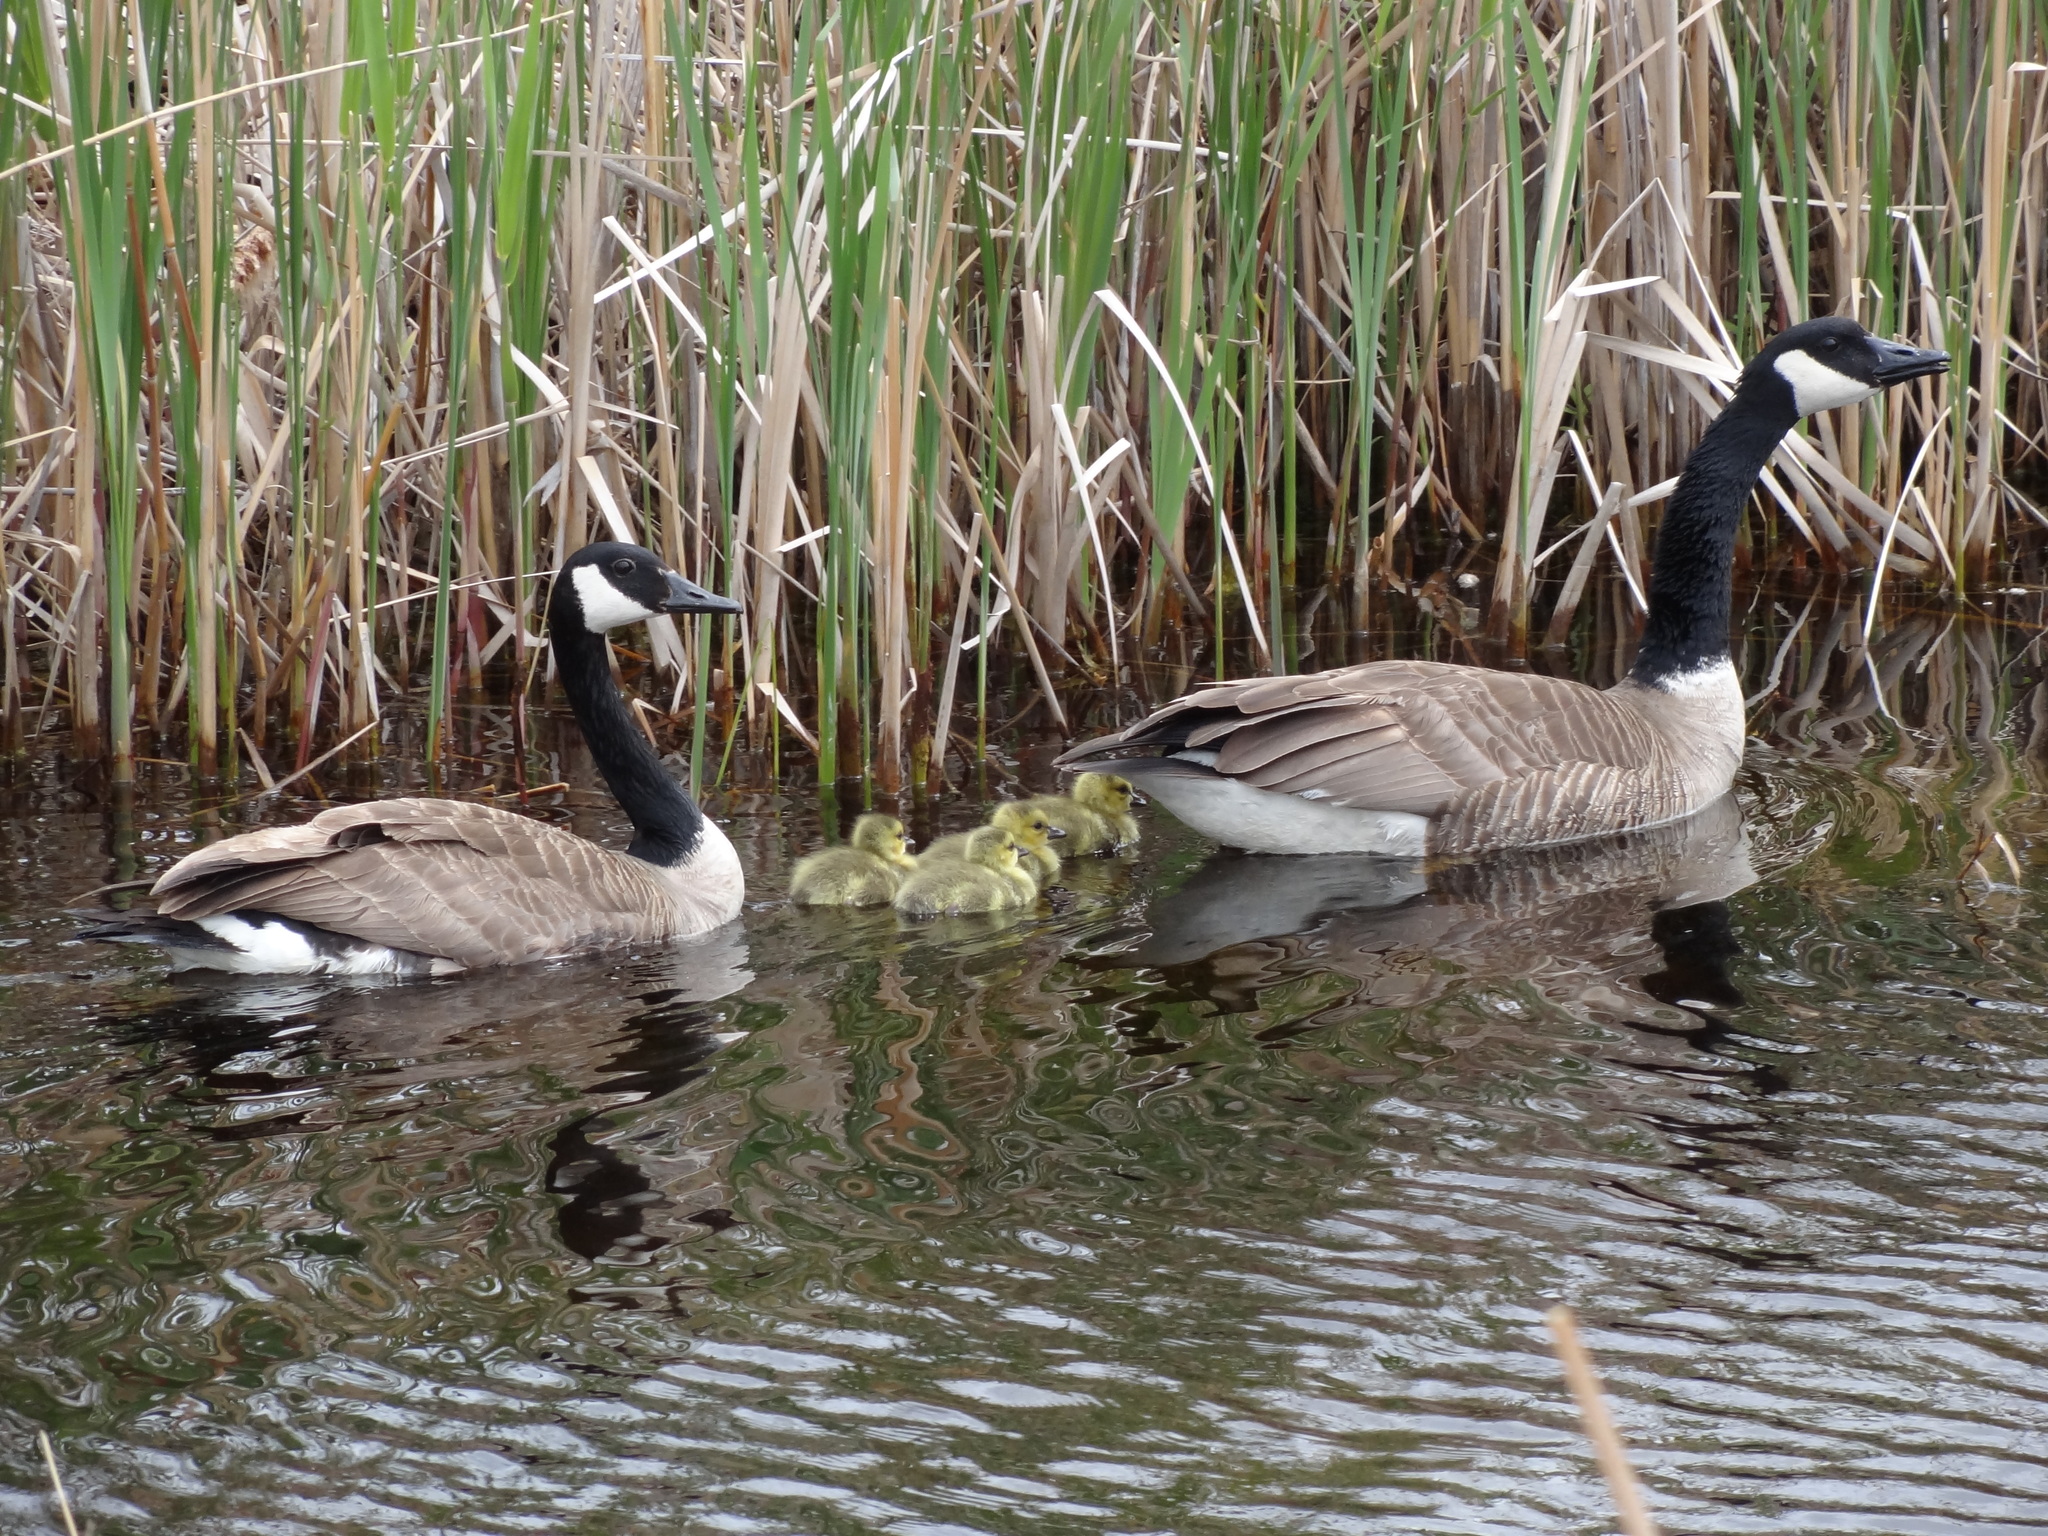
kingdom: Animalia
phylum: Chordata
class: Aves
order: Anseriformes
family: Anatidae
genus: Branta
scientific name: Branta canadensis
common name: Canada goose
